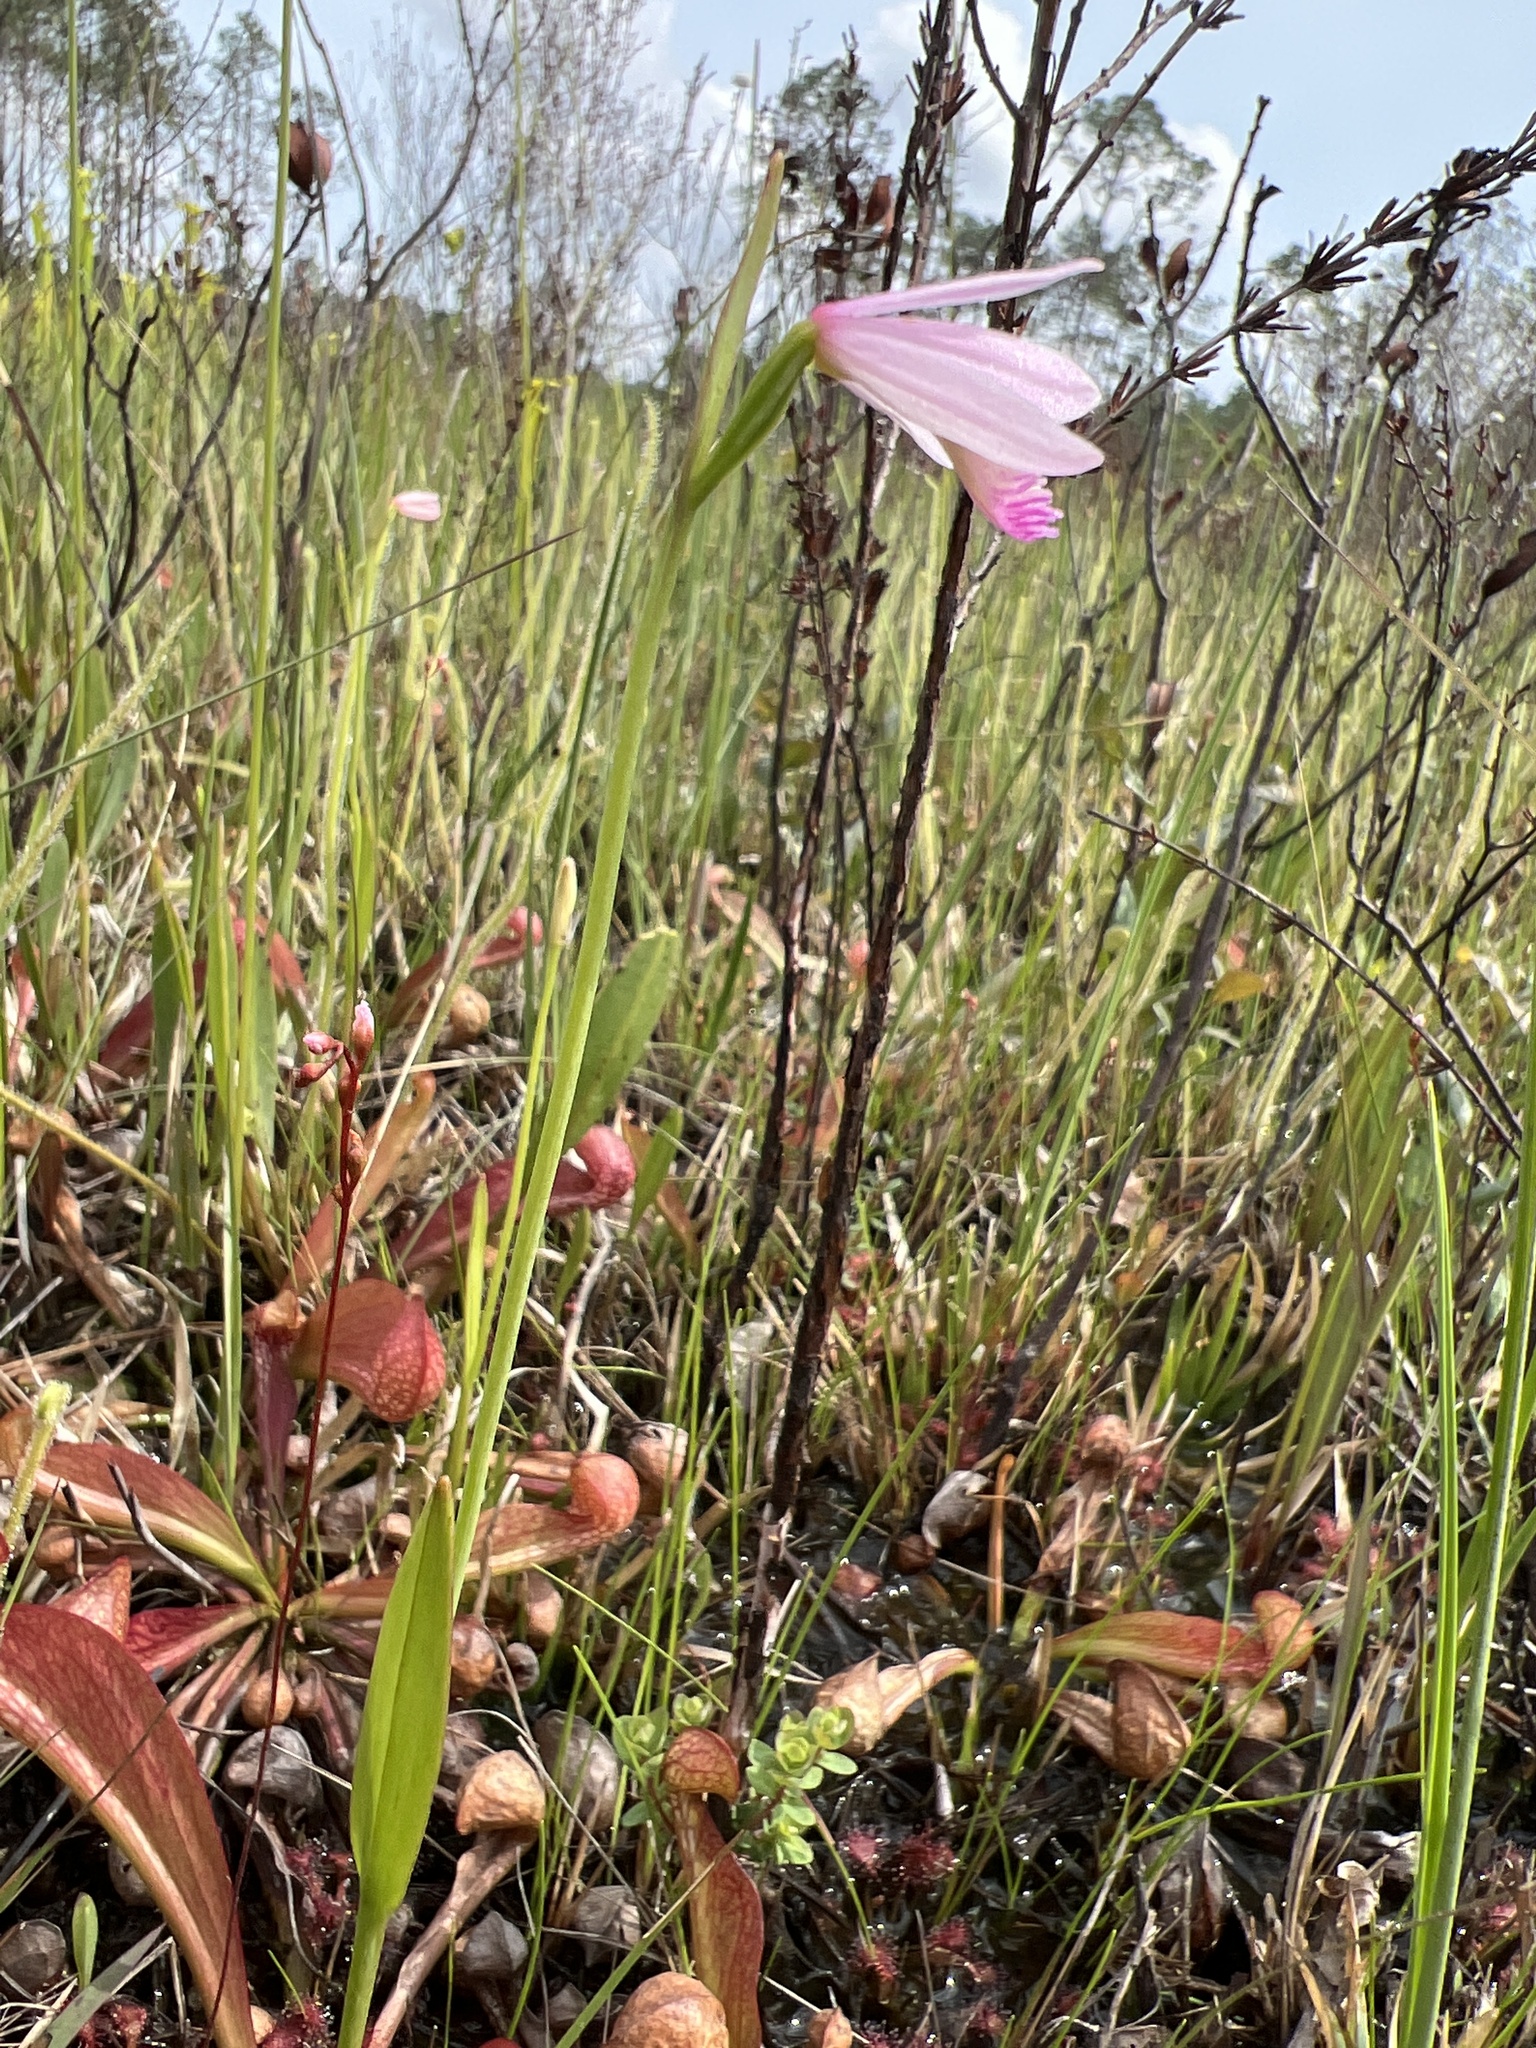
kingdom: Plantae
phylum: Tracheophyta
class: Liliopsida
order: Asparagales
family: Orchidaceae
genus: Pogonia
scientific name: Pogonia ophioglossoides
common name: Rose pogonia
